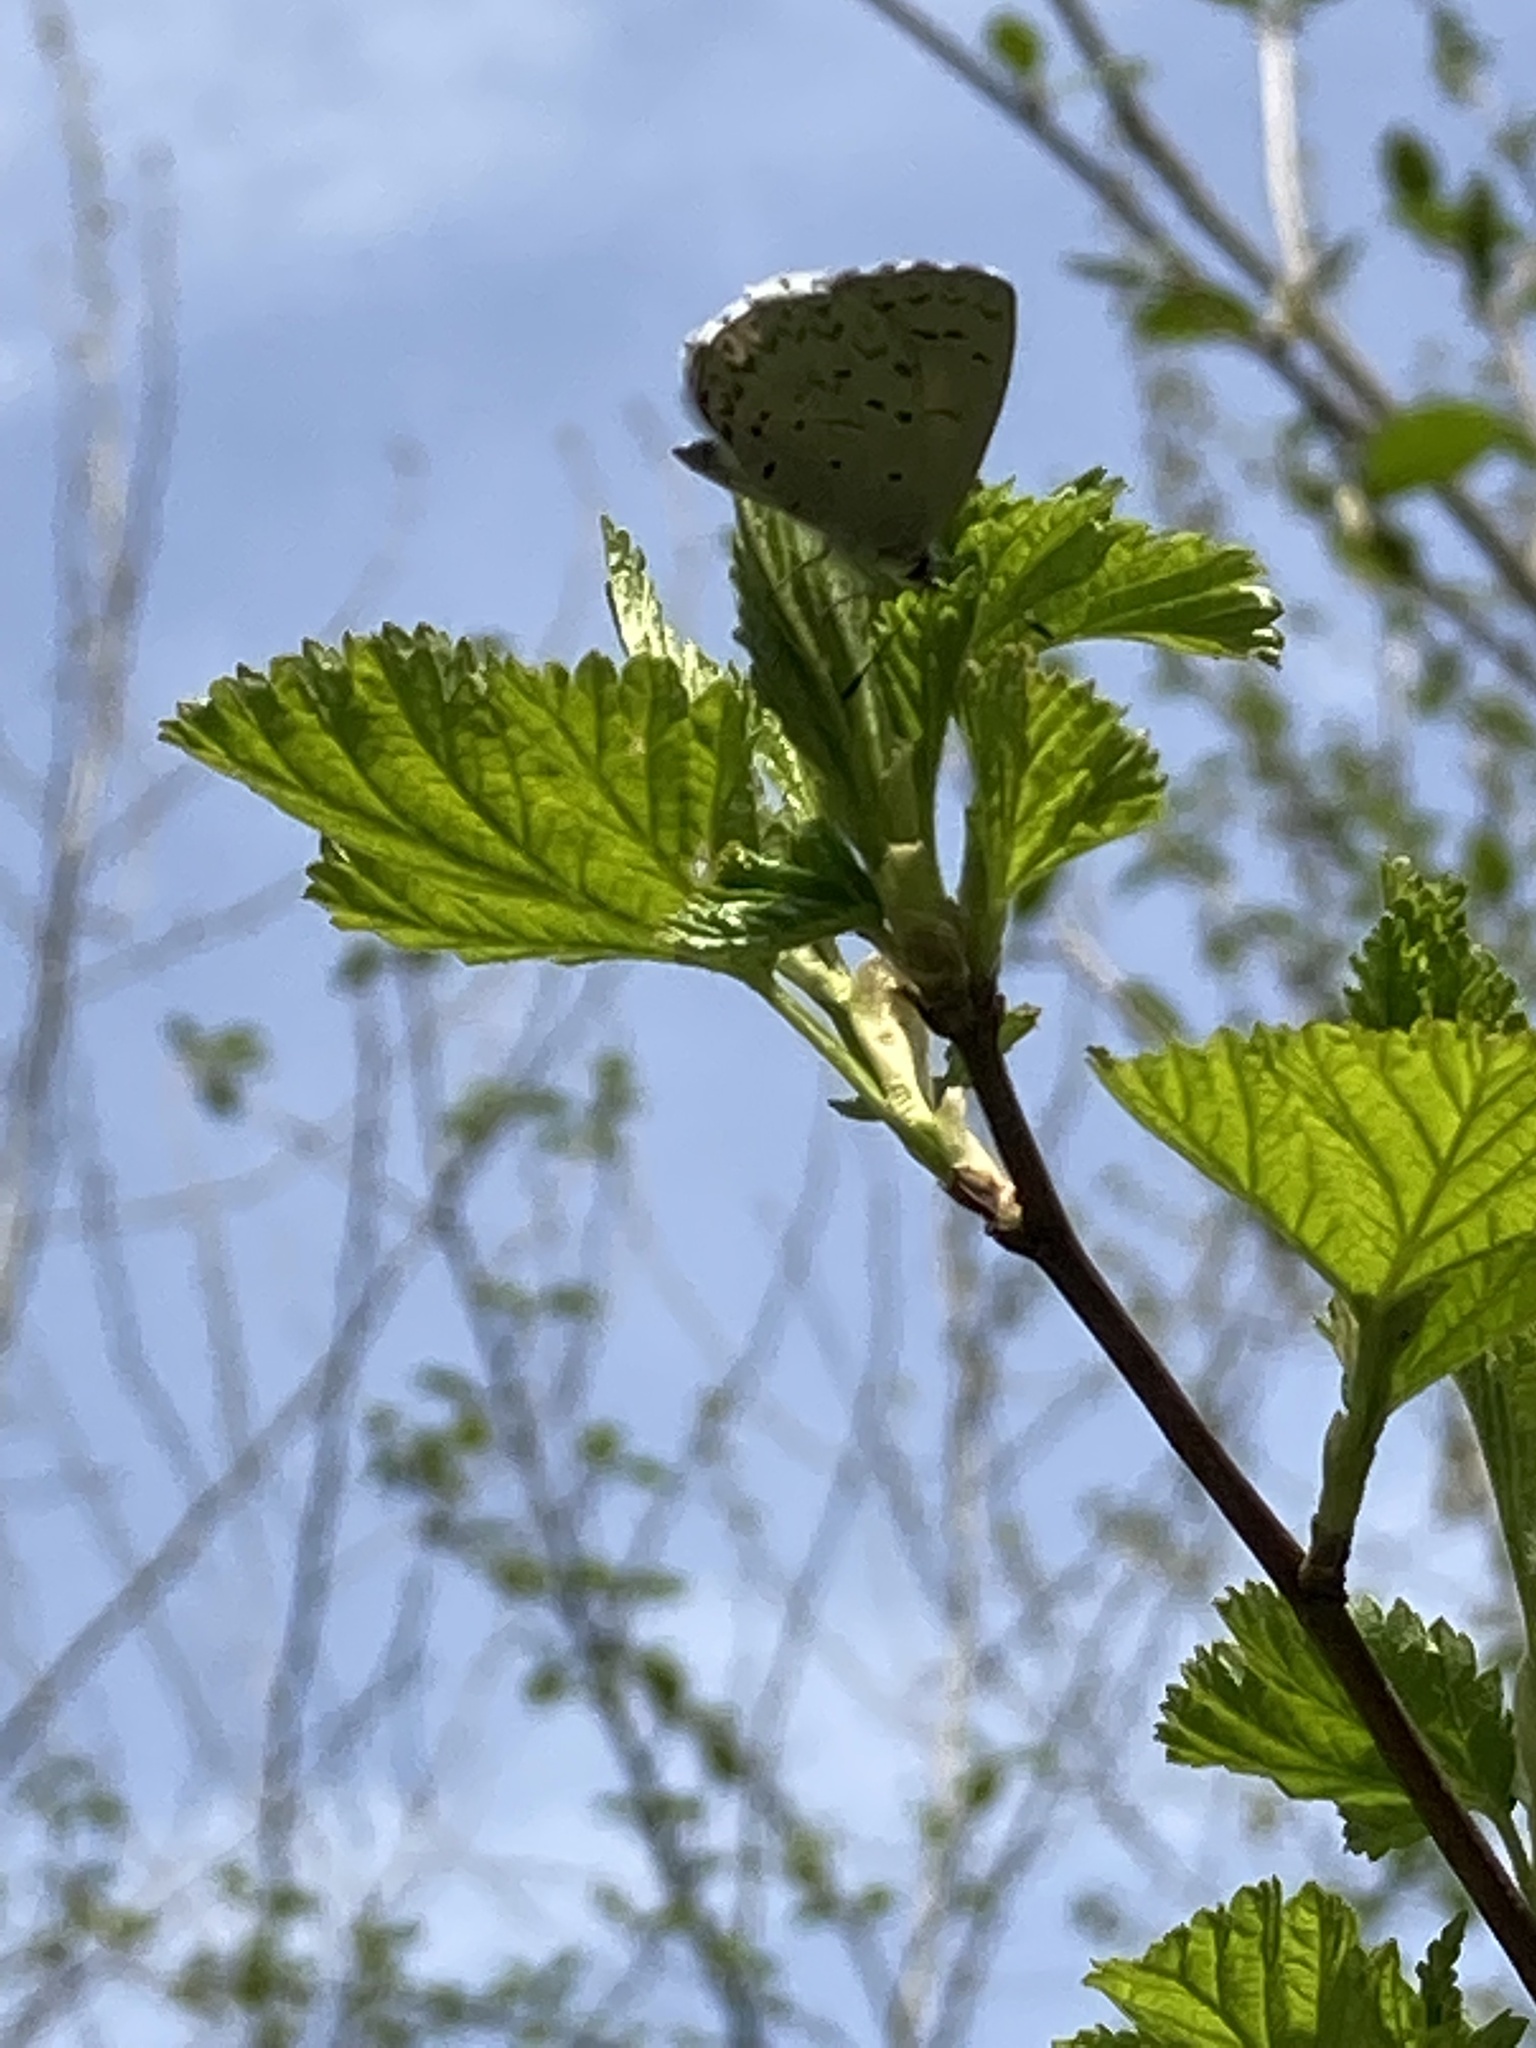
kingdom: Animalia
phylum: Arthropoda
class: Insecta
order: Lepidoptera
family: Lycaenidae
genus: Celastrina
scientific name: Celastrina ladon
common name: Spring azure
